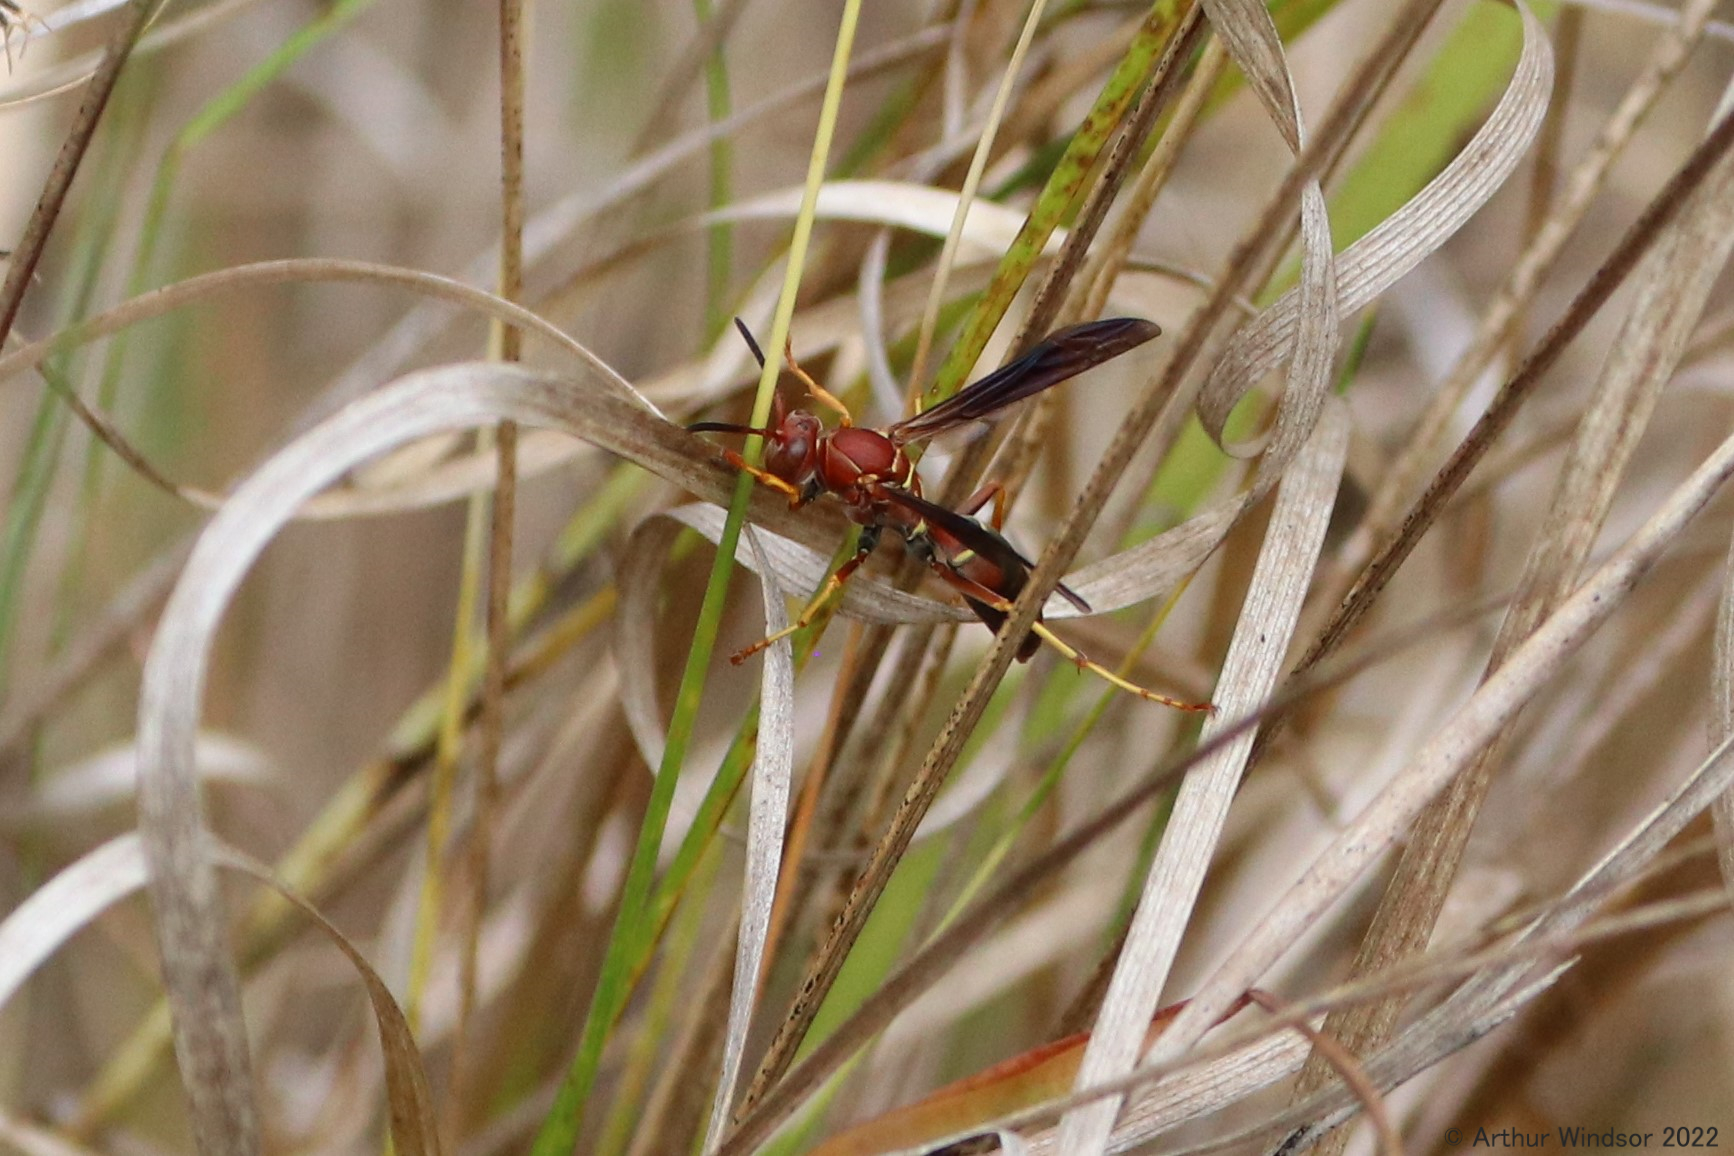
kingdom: Animalia
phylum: Arthropoda
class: Insecta
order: Hymenoptera
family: Eumenidae
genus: Polistes
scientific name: Polistes fuscatus
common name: Dark paper wasp
